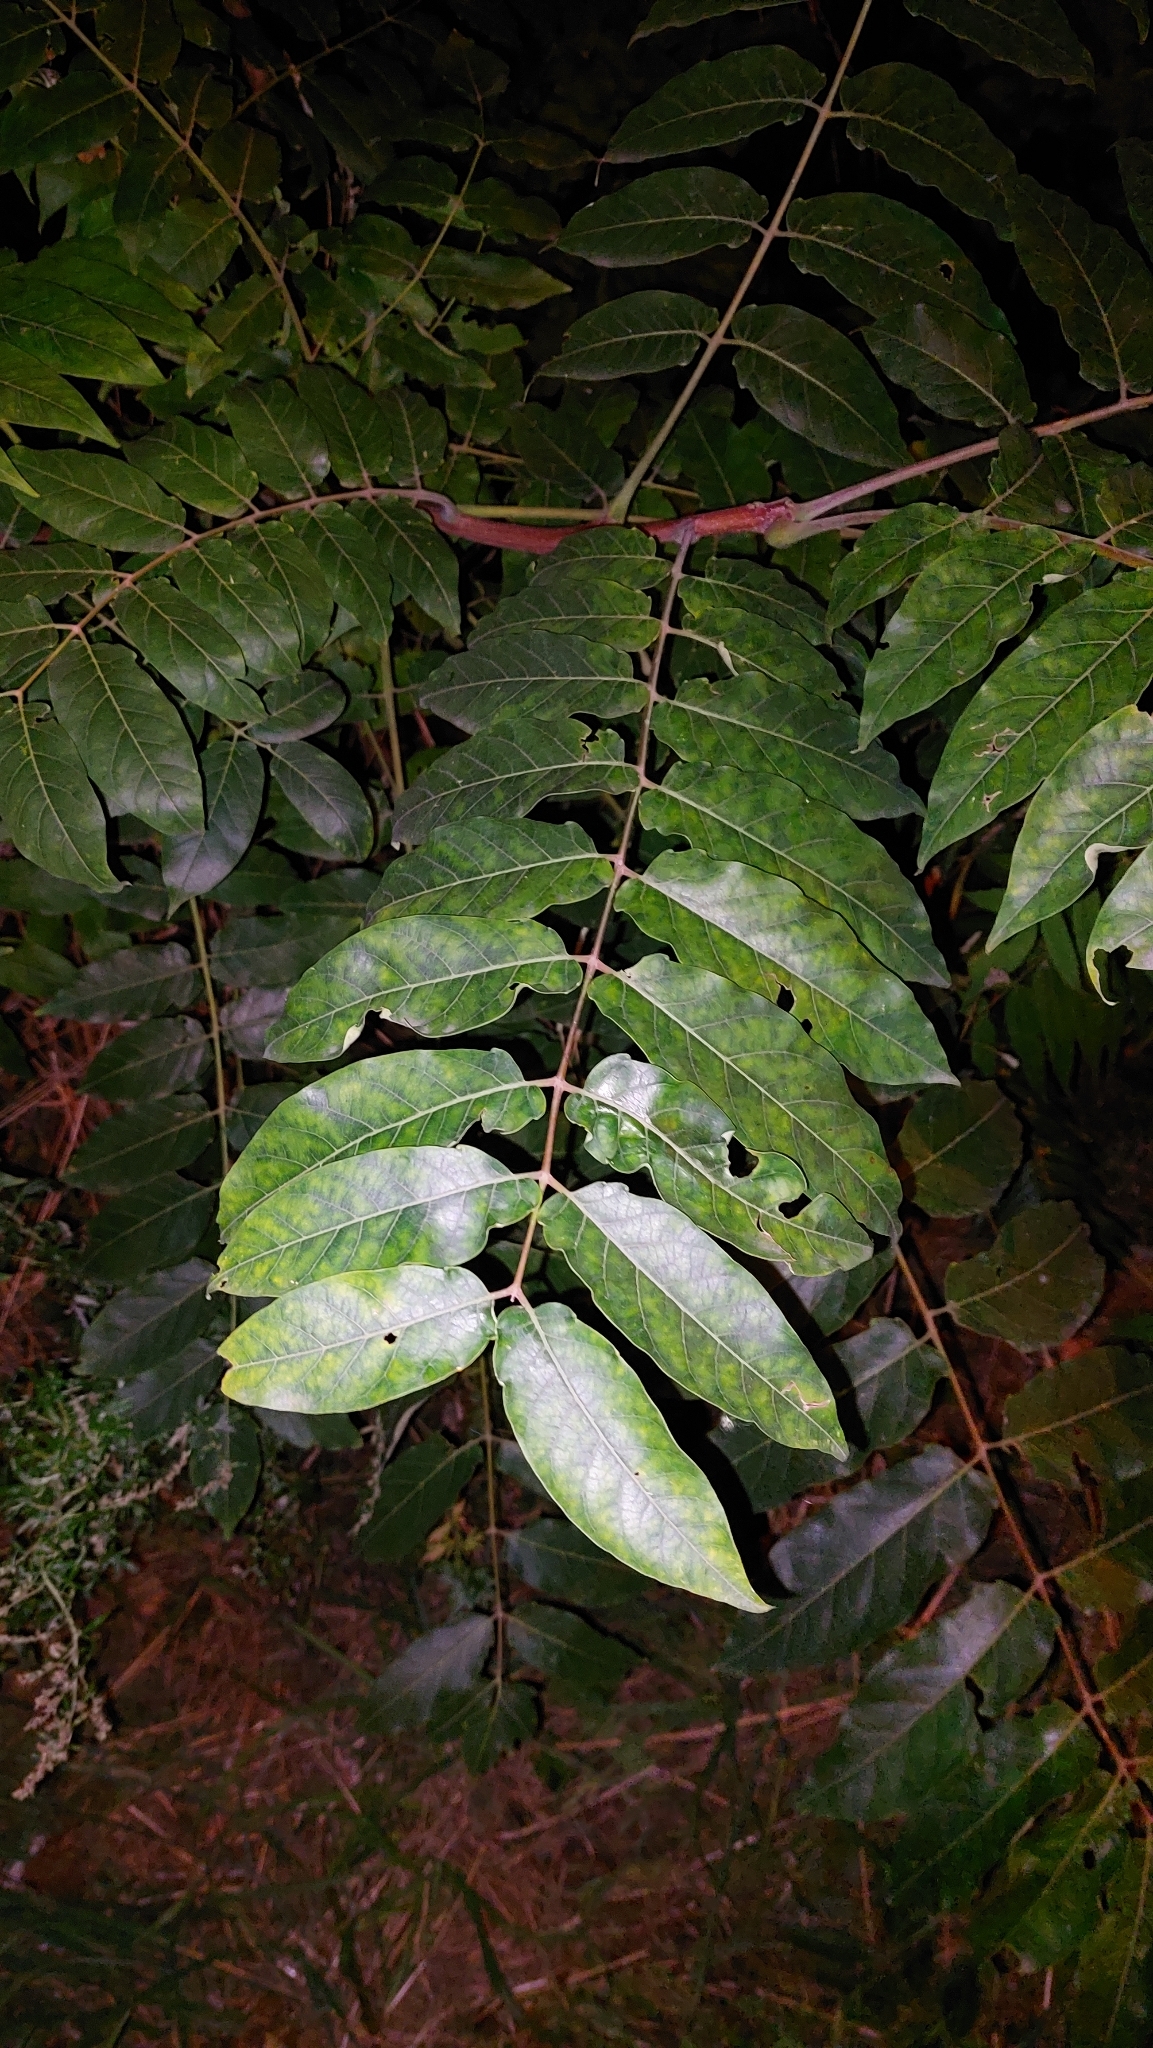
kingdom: Plantae
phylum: Tracheophyta
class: Magnoliopsida
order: Sapindales
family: Simaroubaceae
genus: Ailanthus
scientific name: Ailanthus altissima
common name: Tree-of-heaven
